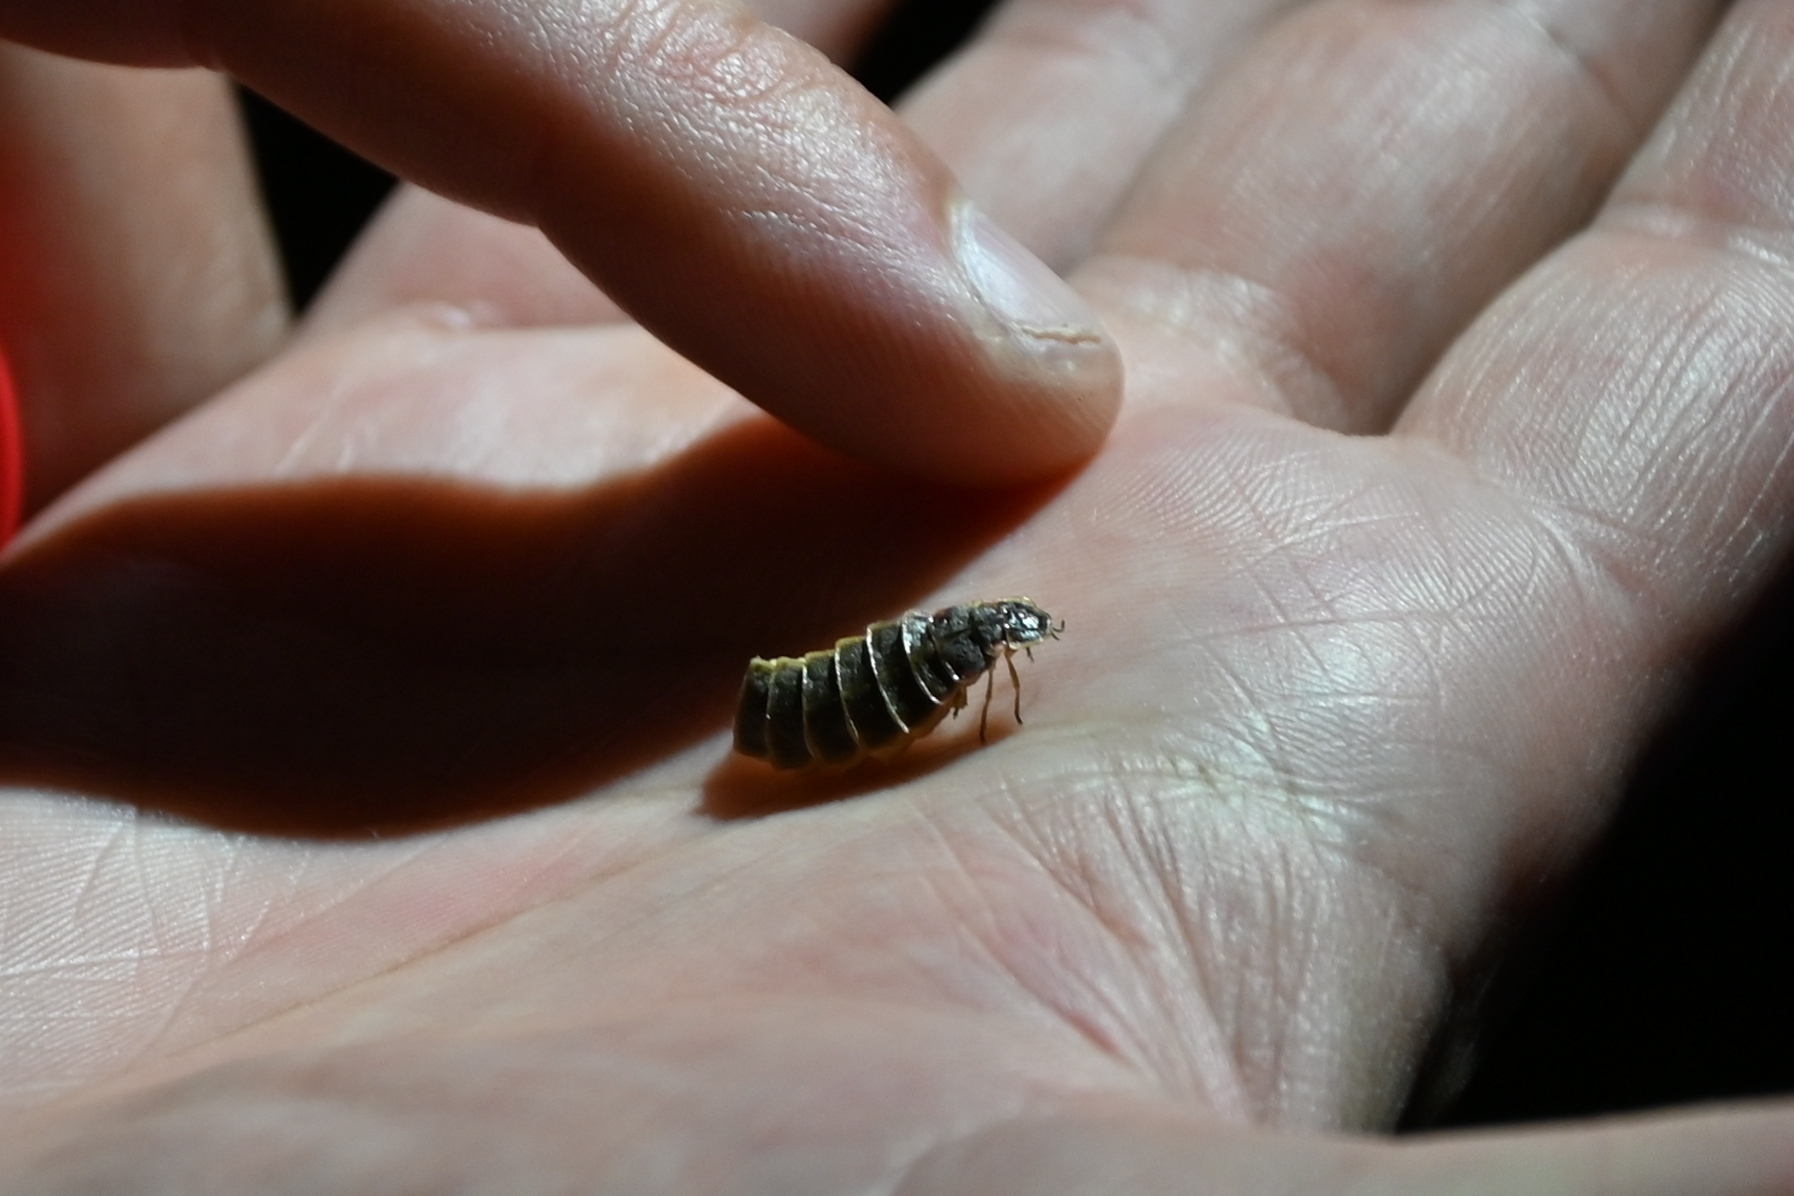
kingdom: Animalia
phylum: Arthropoda
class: Insecta
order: Coleoptera
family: Lampyridae
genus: Lampyris
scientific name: Lampyris noctiluca
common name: Glow-worm
